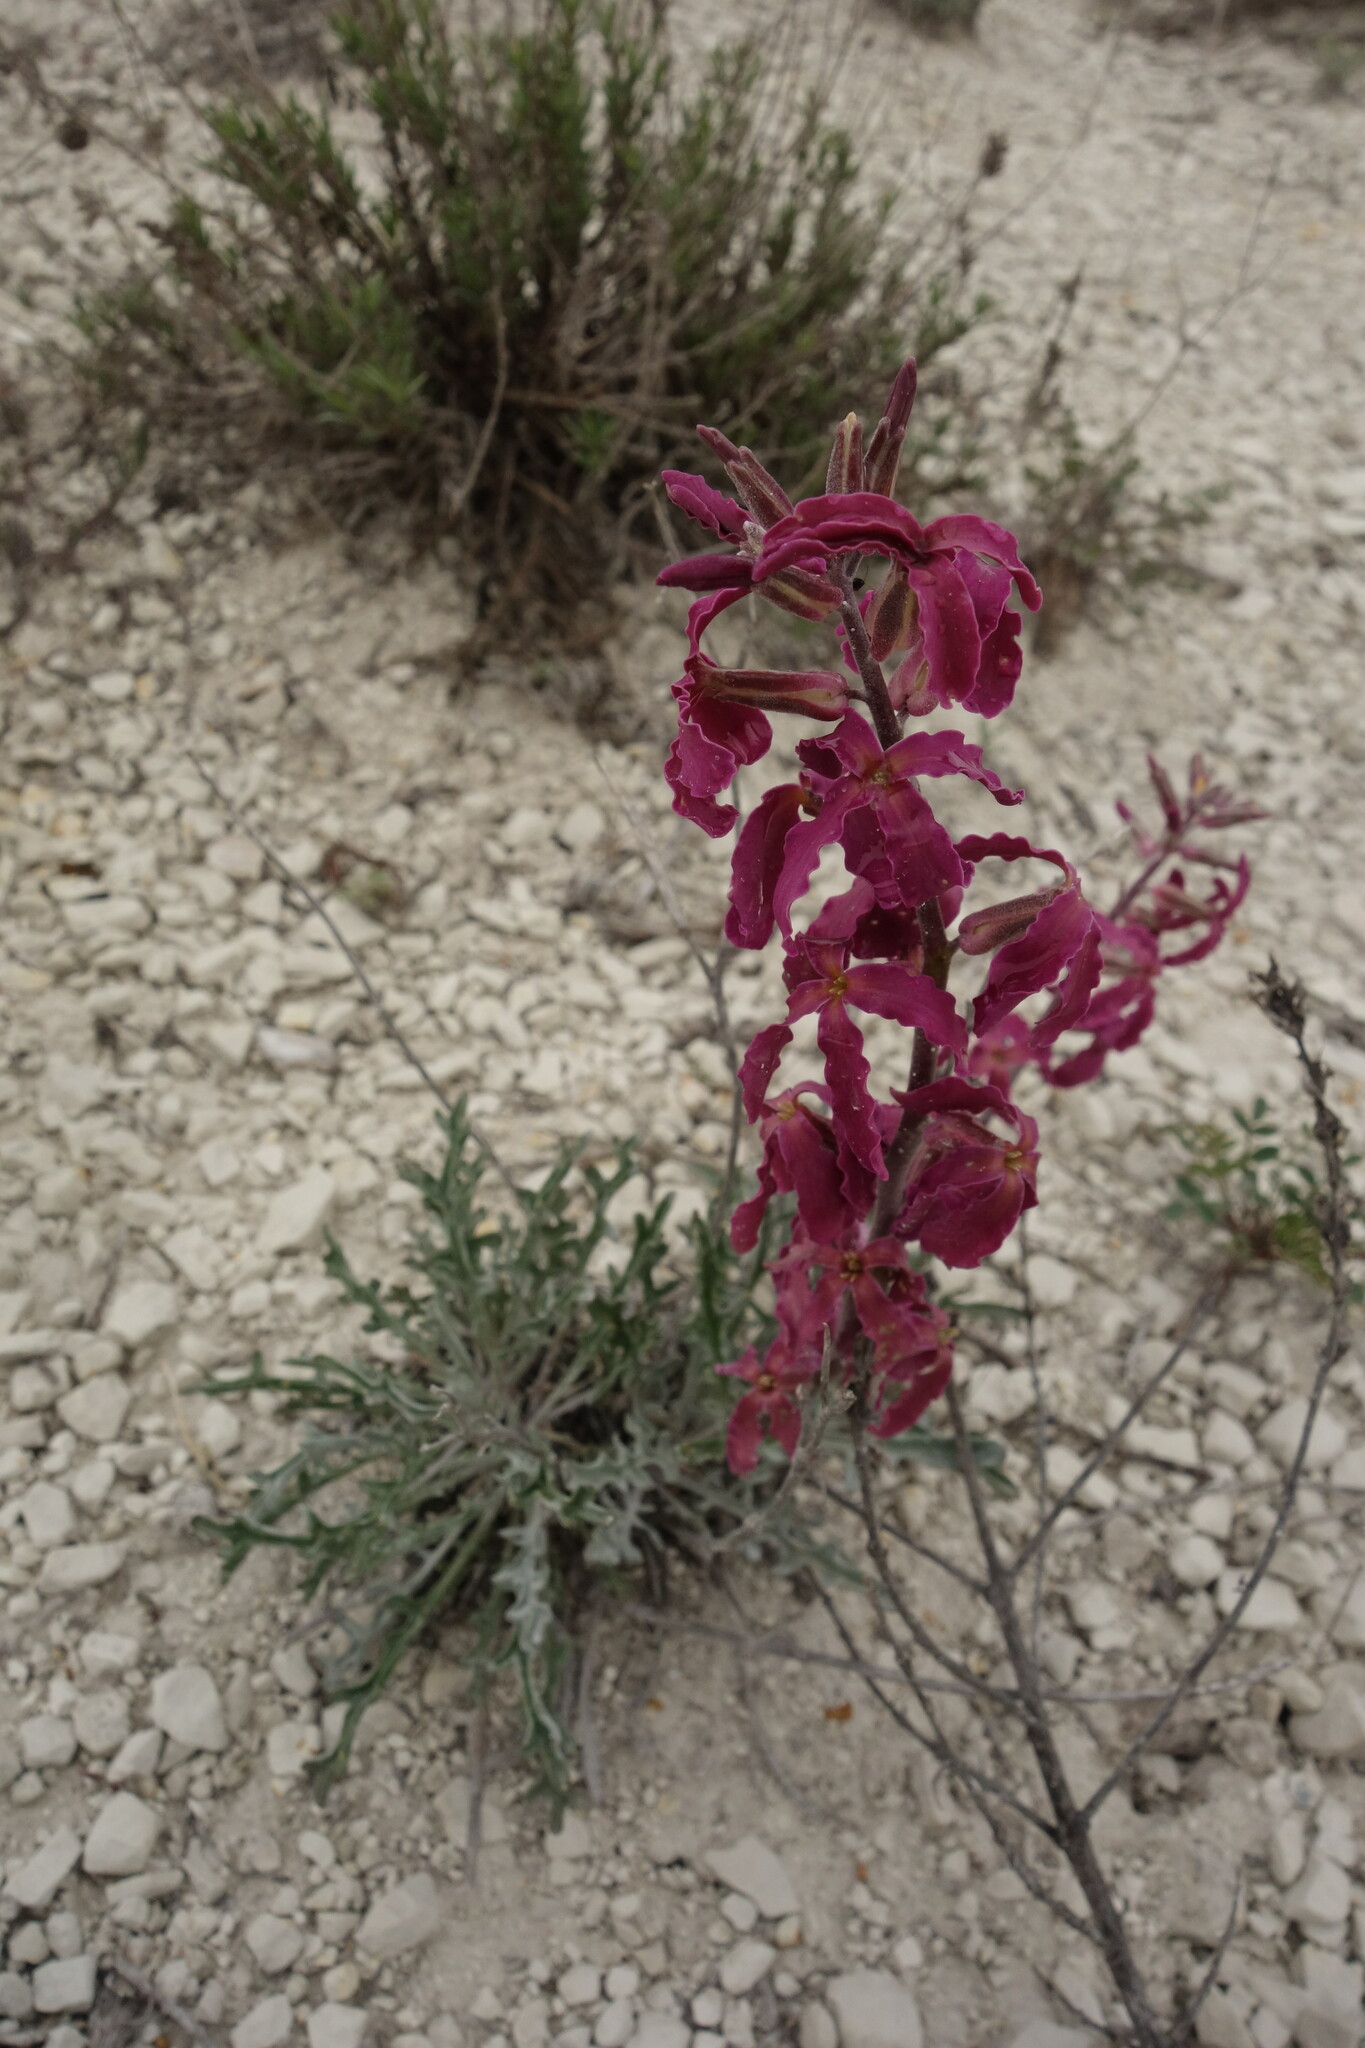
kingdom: Plantae
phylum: Tracheophyta
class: Magnoliopsida
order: Brassicales
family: Brassicaceae
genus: Matthiola
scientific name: Matthiola fragrans
